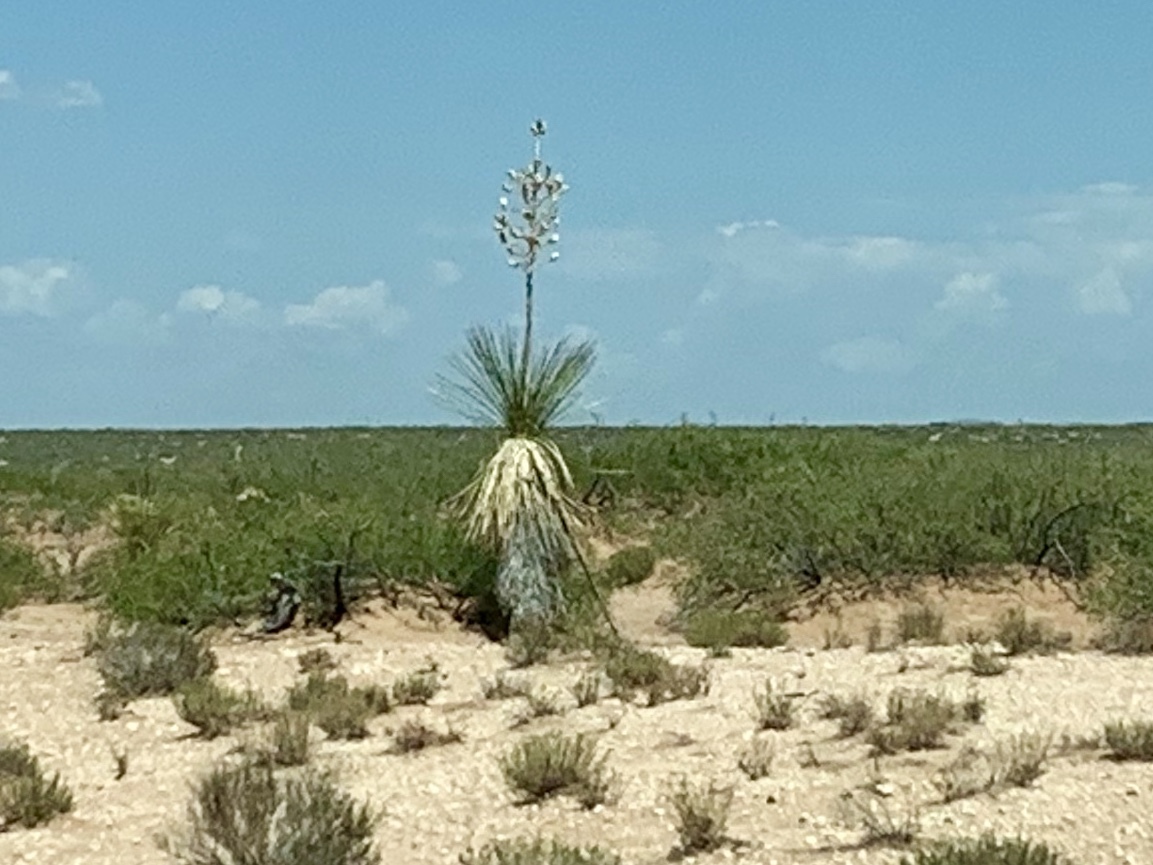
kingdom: Plantae
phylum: Tracheophyta
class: Liliopsida
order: Asparagales
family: Asparagaceae
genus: Yucca
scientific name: Yucca elata
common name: Palmella
